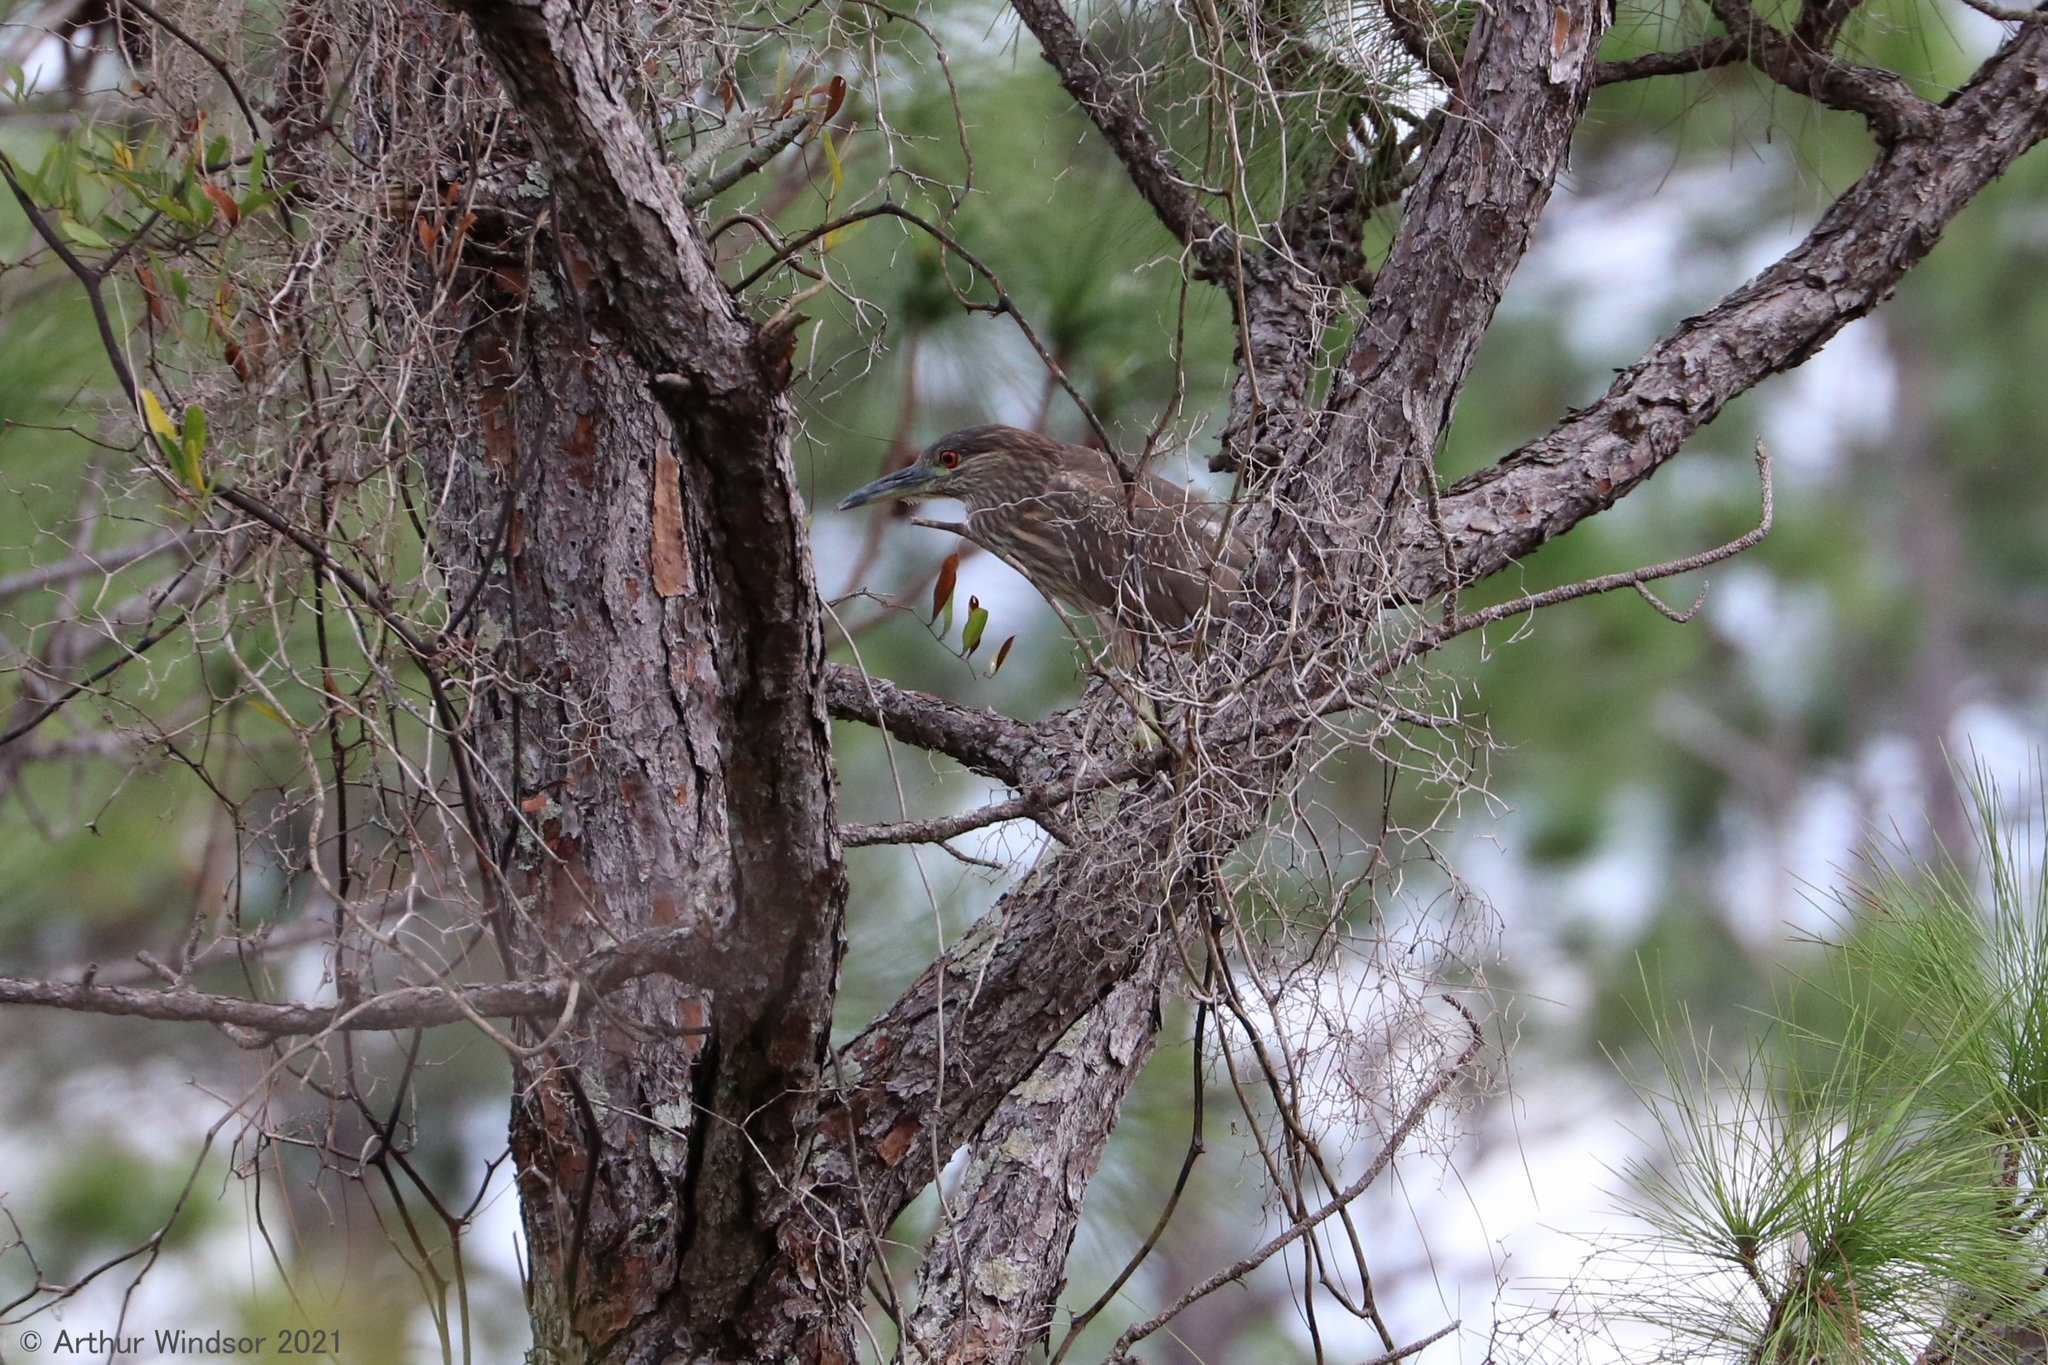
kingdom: Animalia
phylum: Chordata
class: Aves
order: Pelecaniformes
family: Ardeidae
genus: Nycticorax
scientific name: Nycticorax nycticorax
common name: Black-crowned night heron
